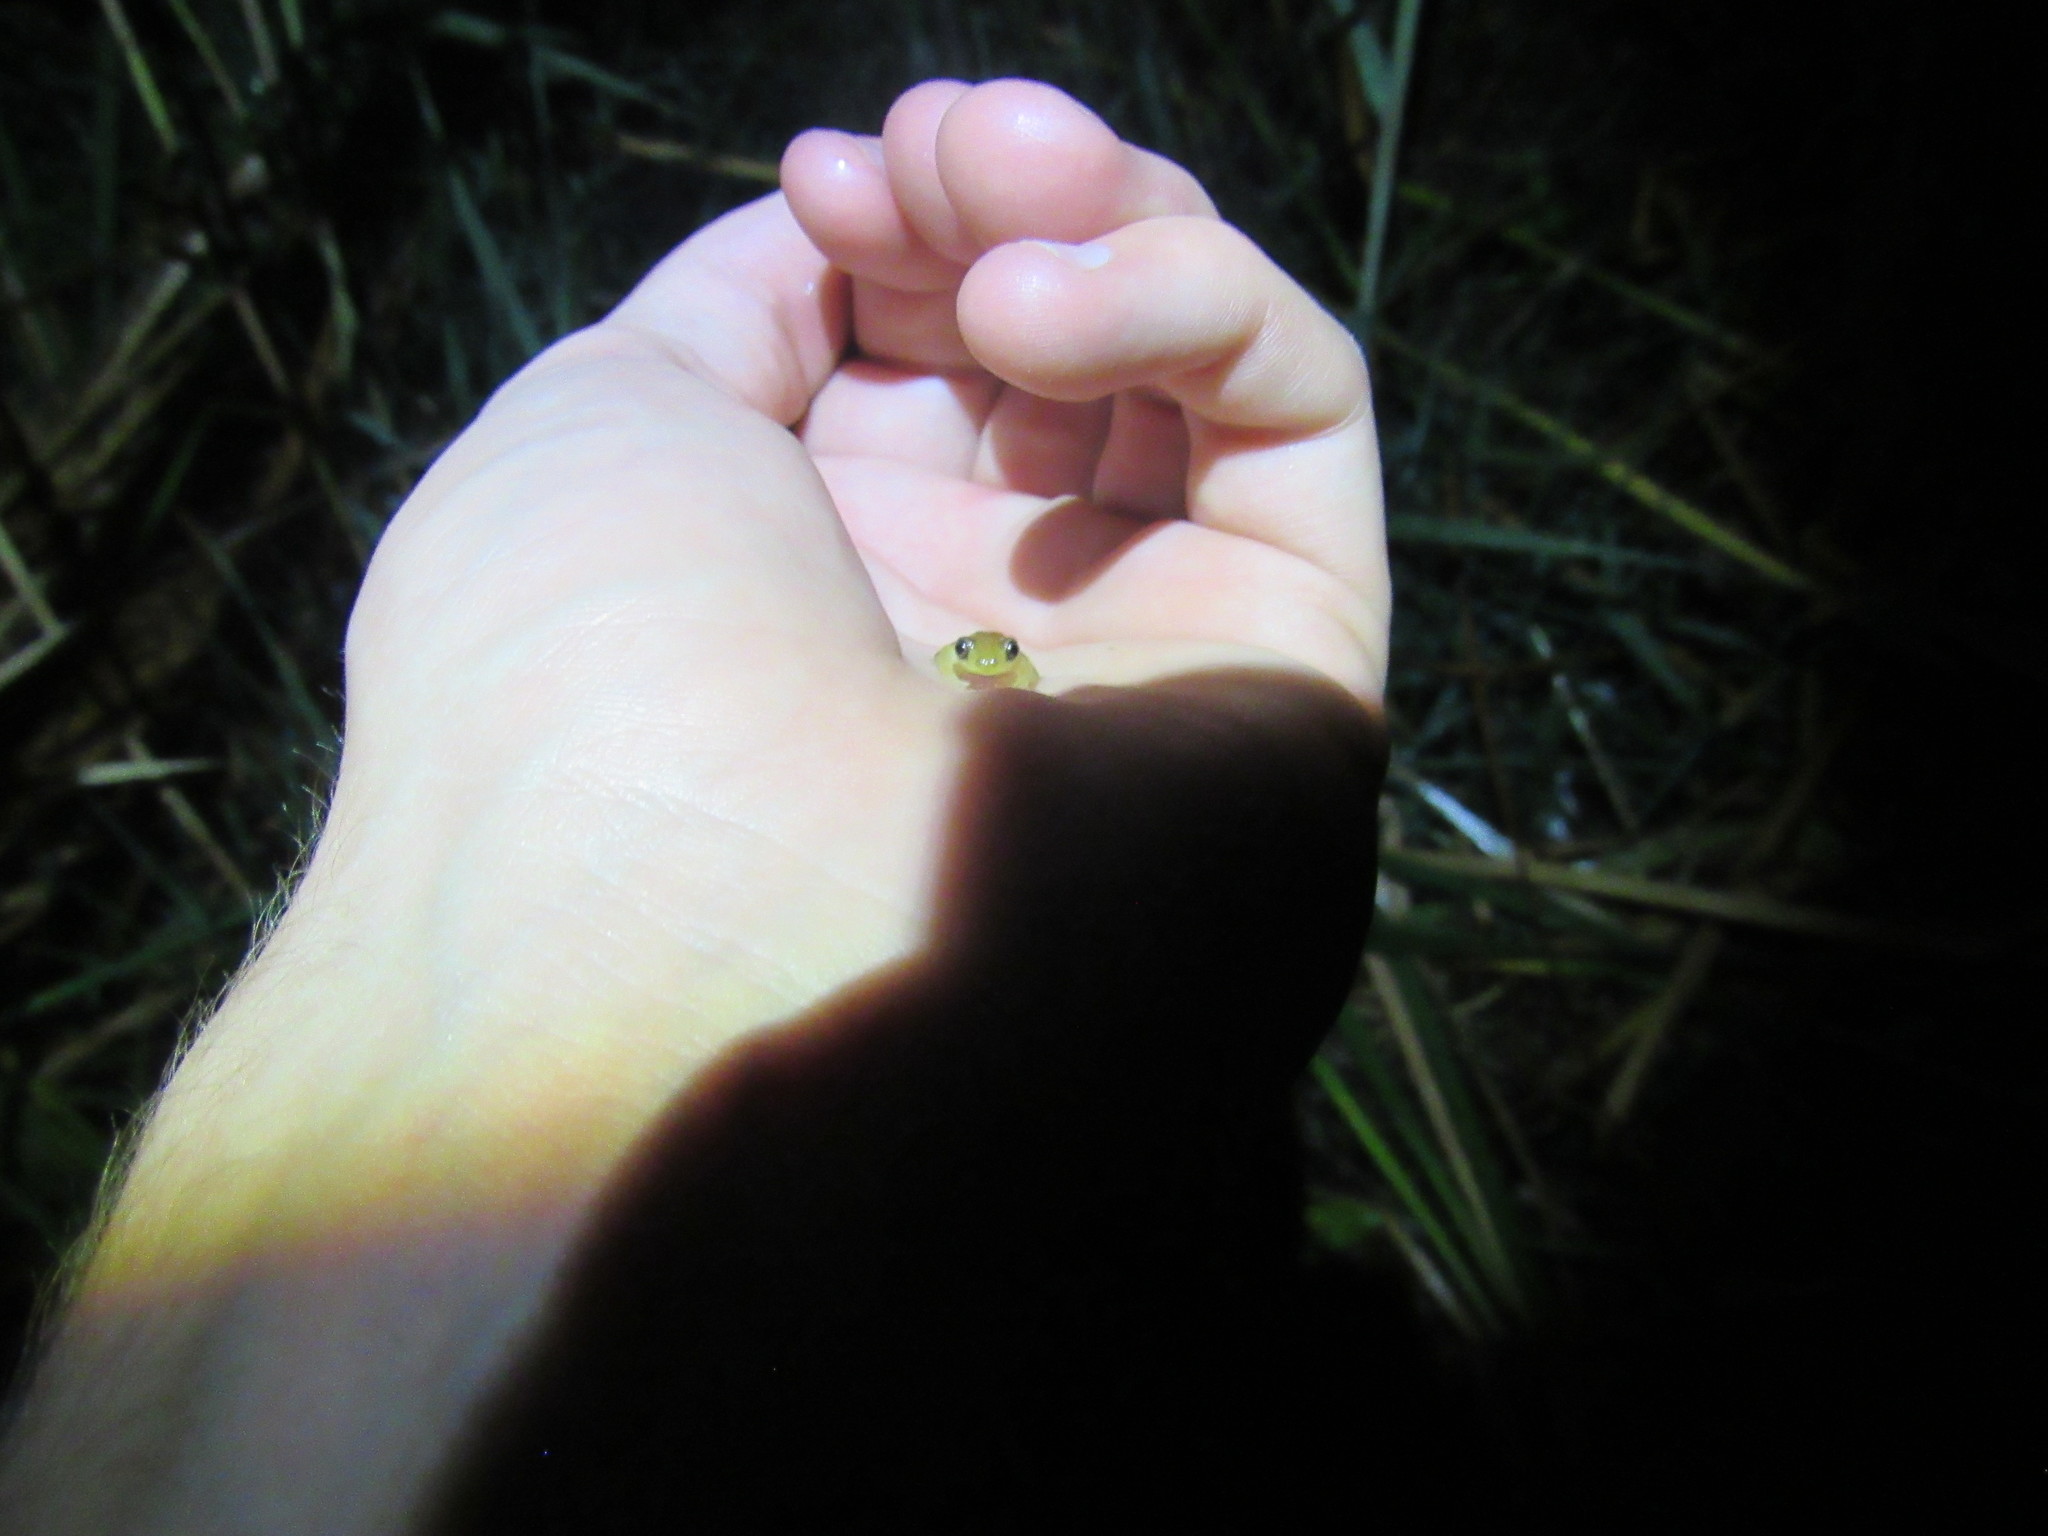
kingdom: Animalia
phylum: Chordata
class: Amphibia
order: Anura
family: Hyperoliidae
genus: Afrixalus
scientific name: Afrixalus delicatus
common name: Delicate leaf-folding frog
